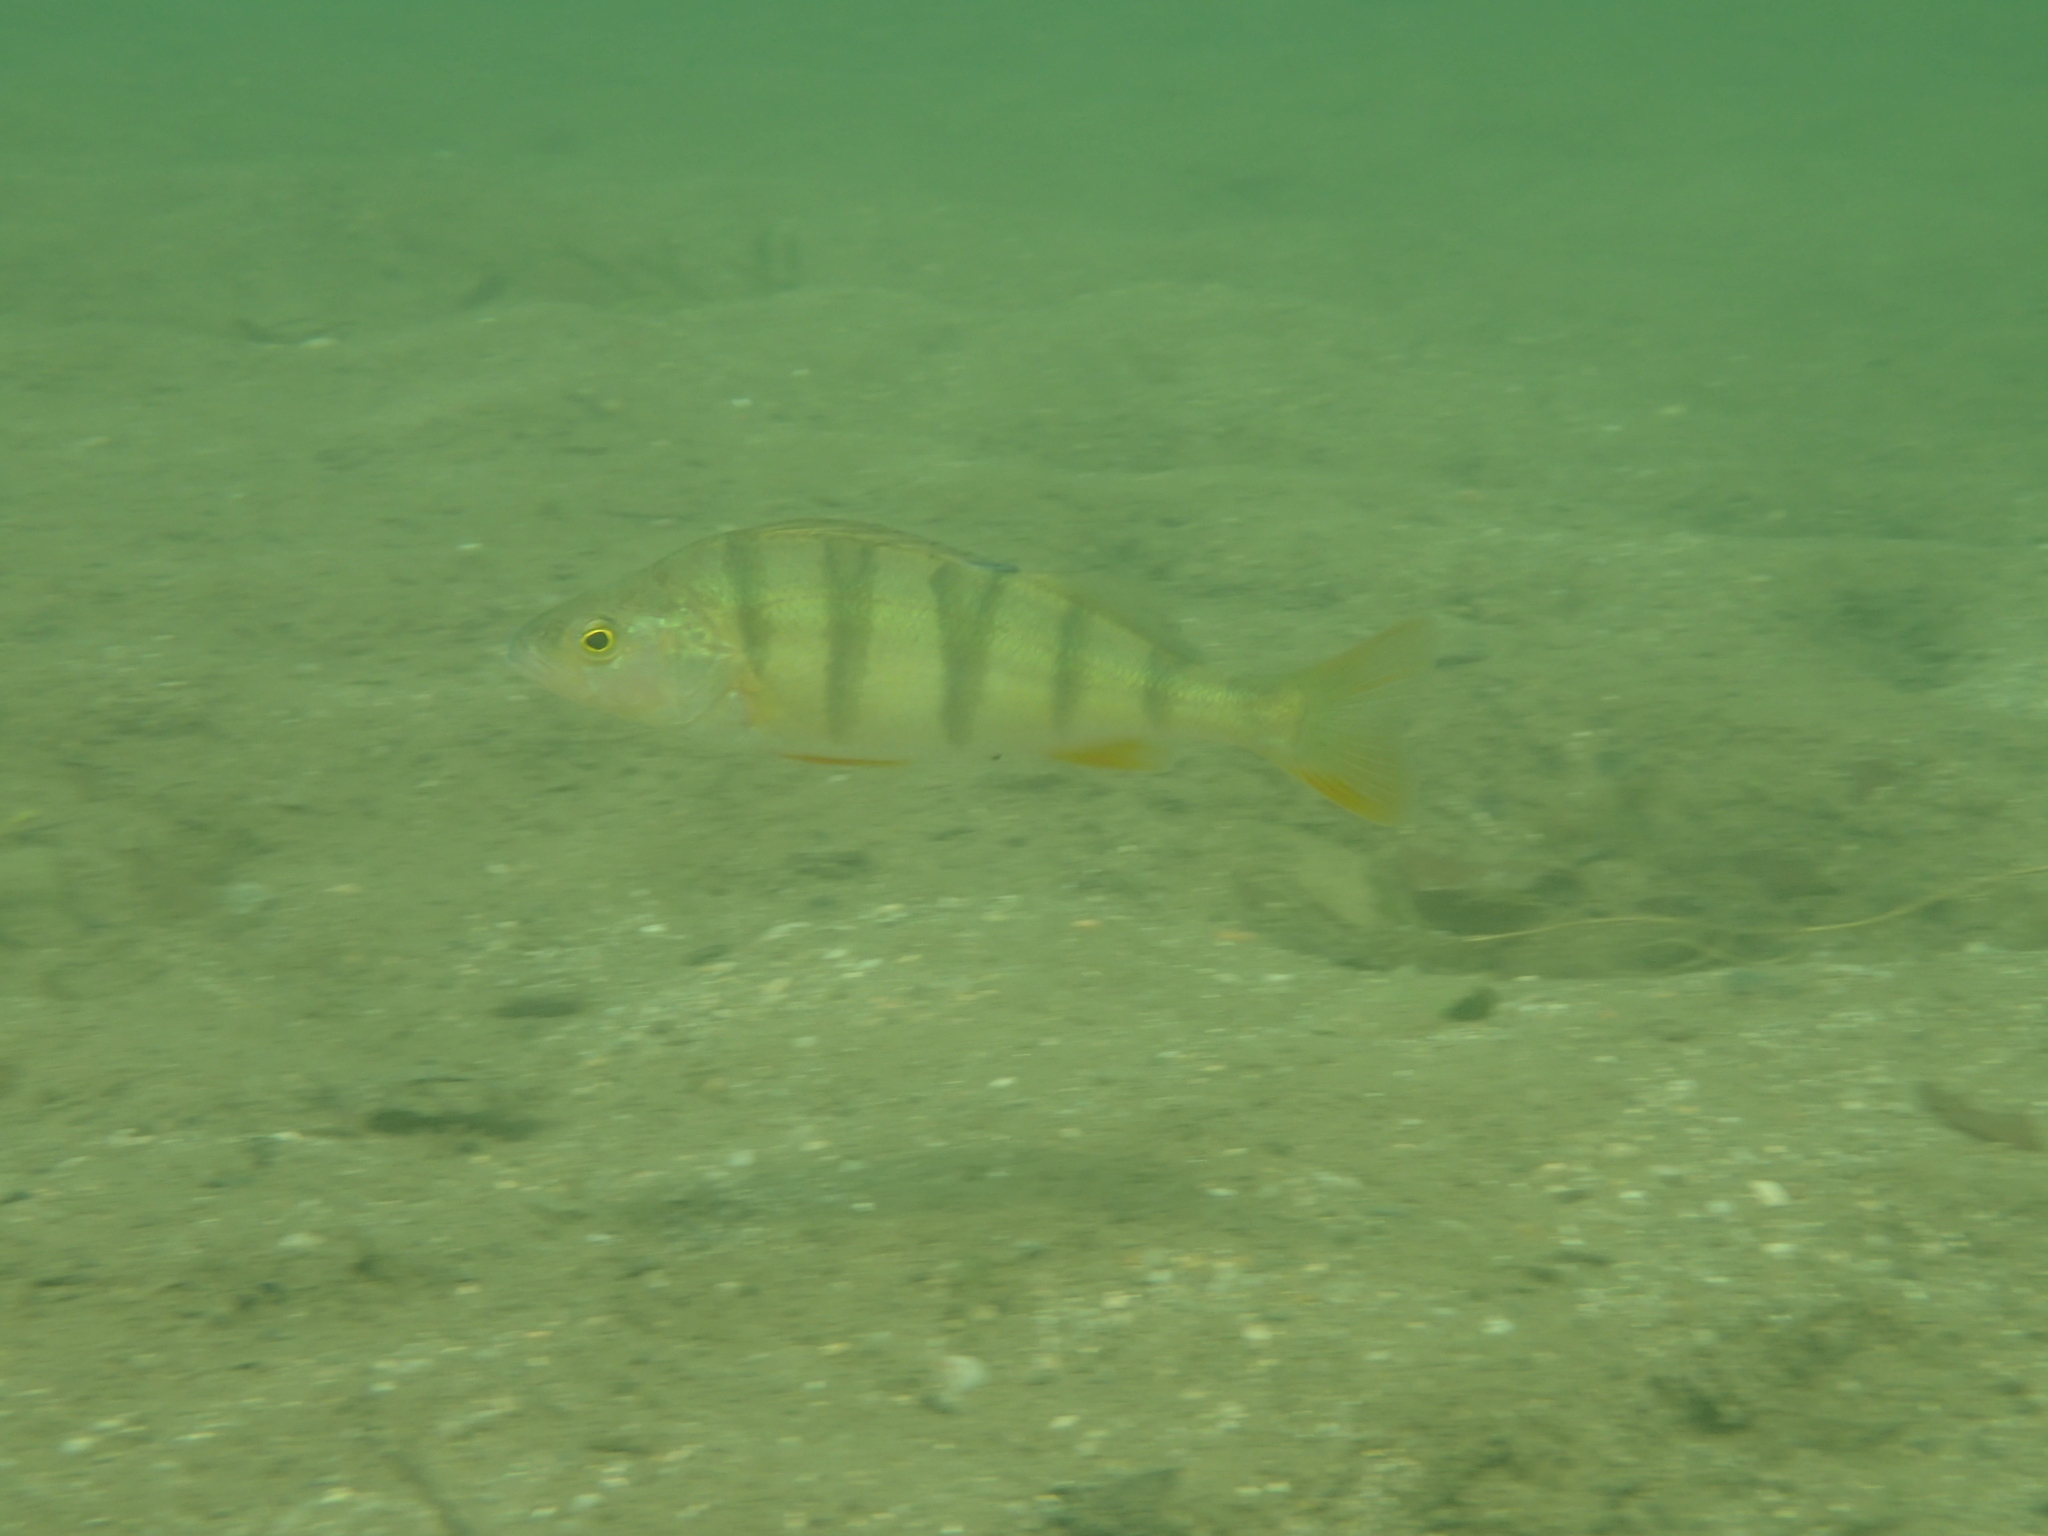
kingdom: Animalia
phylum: Chordata
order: Perciformes
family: Percidae
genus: Perca
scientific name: Perca fluviatilis
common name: Perch
